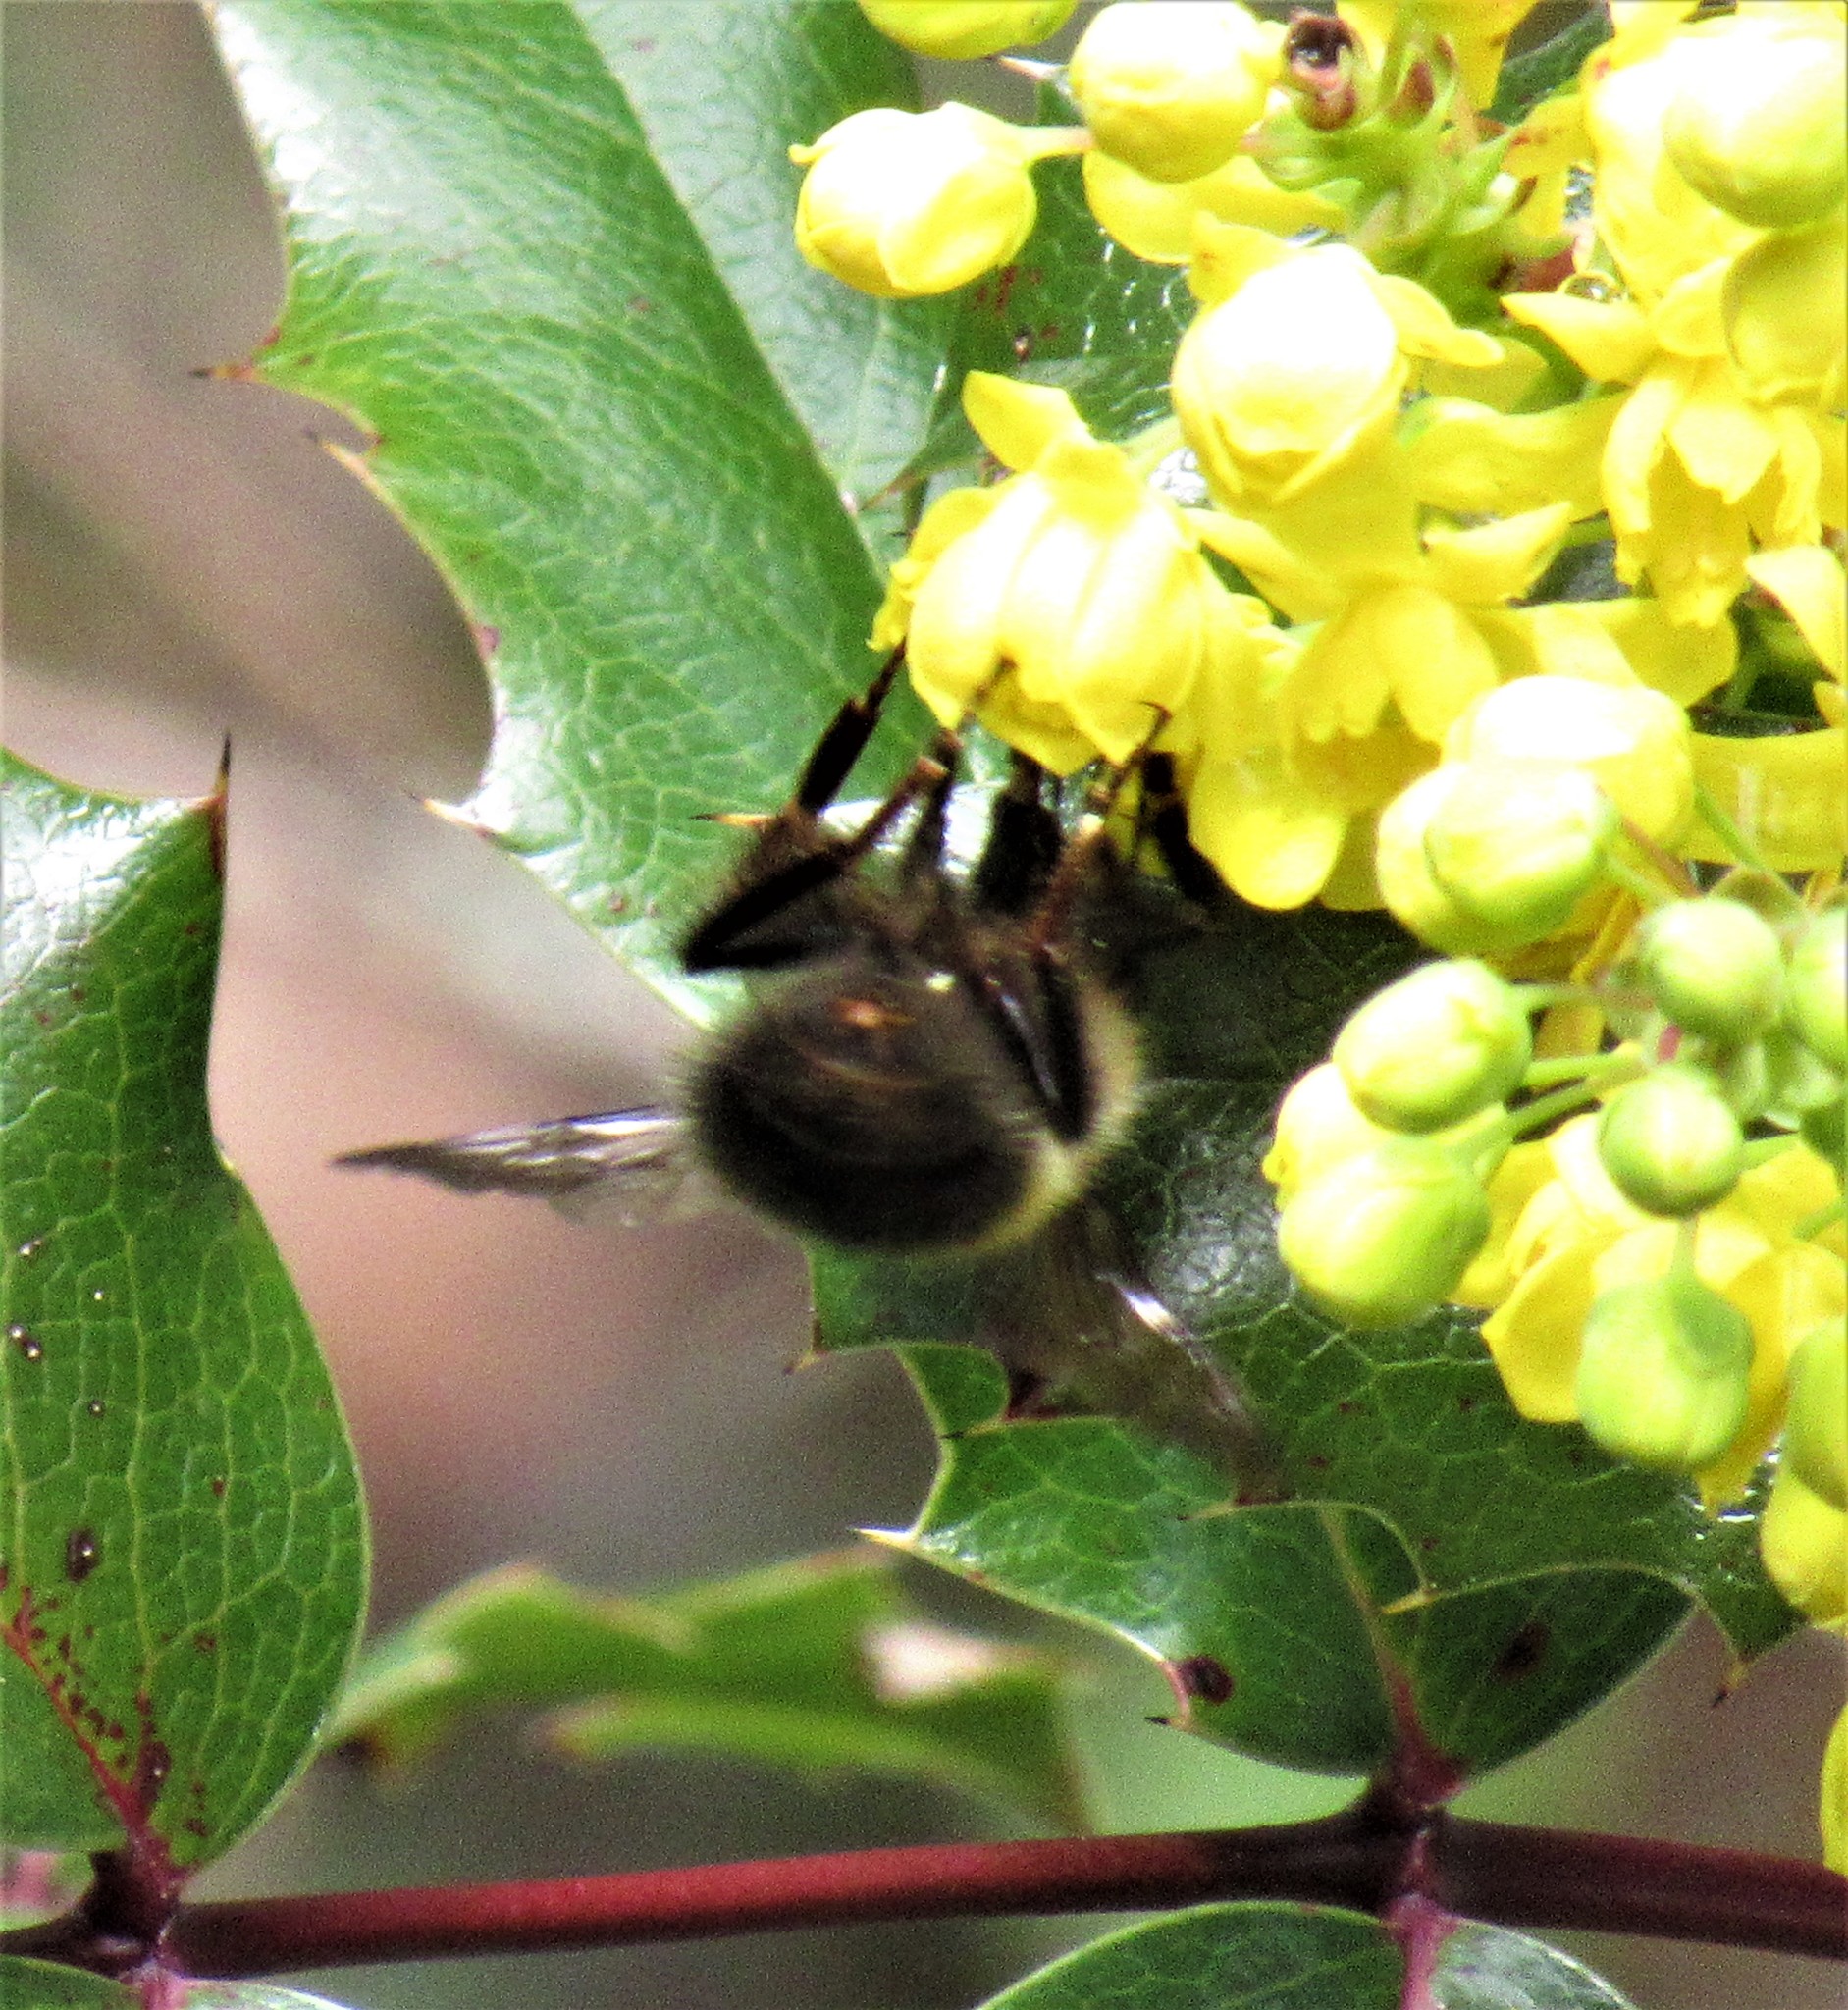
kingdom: Animalia
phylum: Arthropoda
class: Insecta
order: Hymenoptera
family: Apidae
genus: Bombus
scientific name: Bombus flavifrons
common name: Yellow head bumble bee
